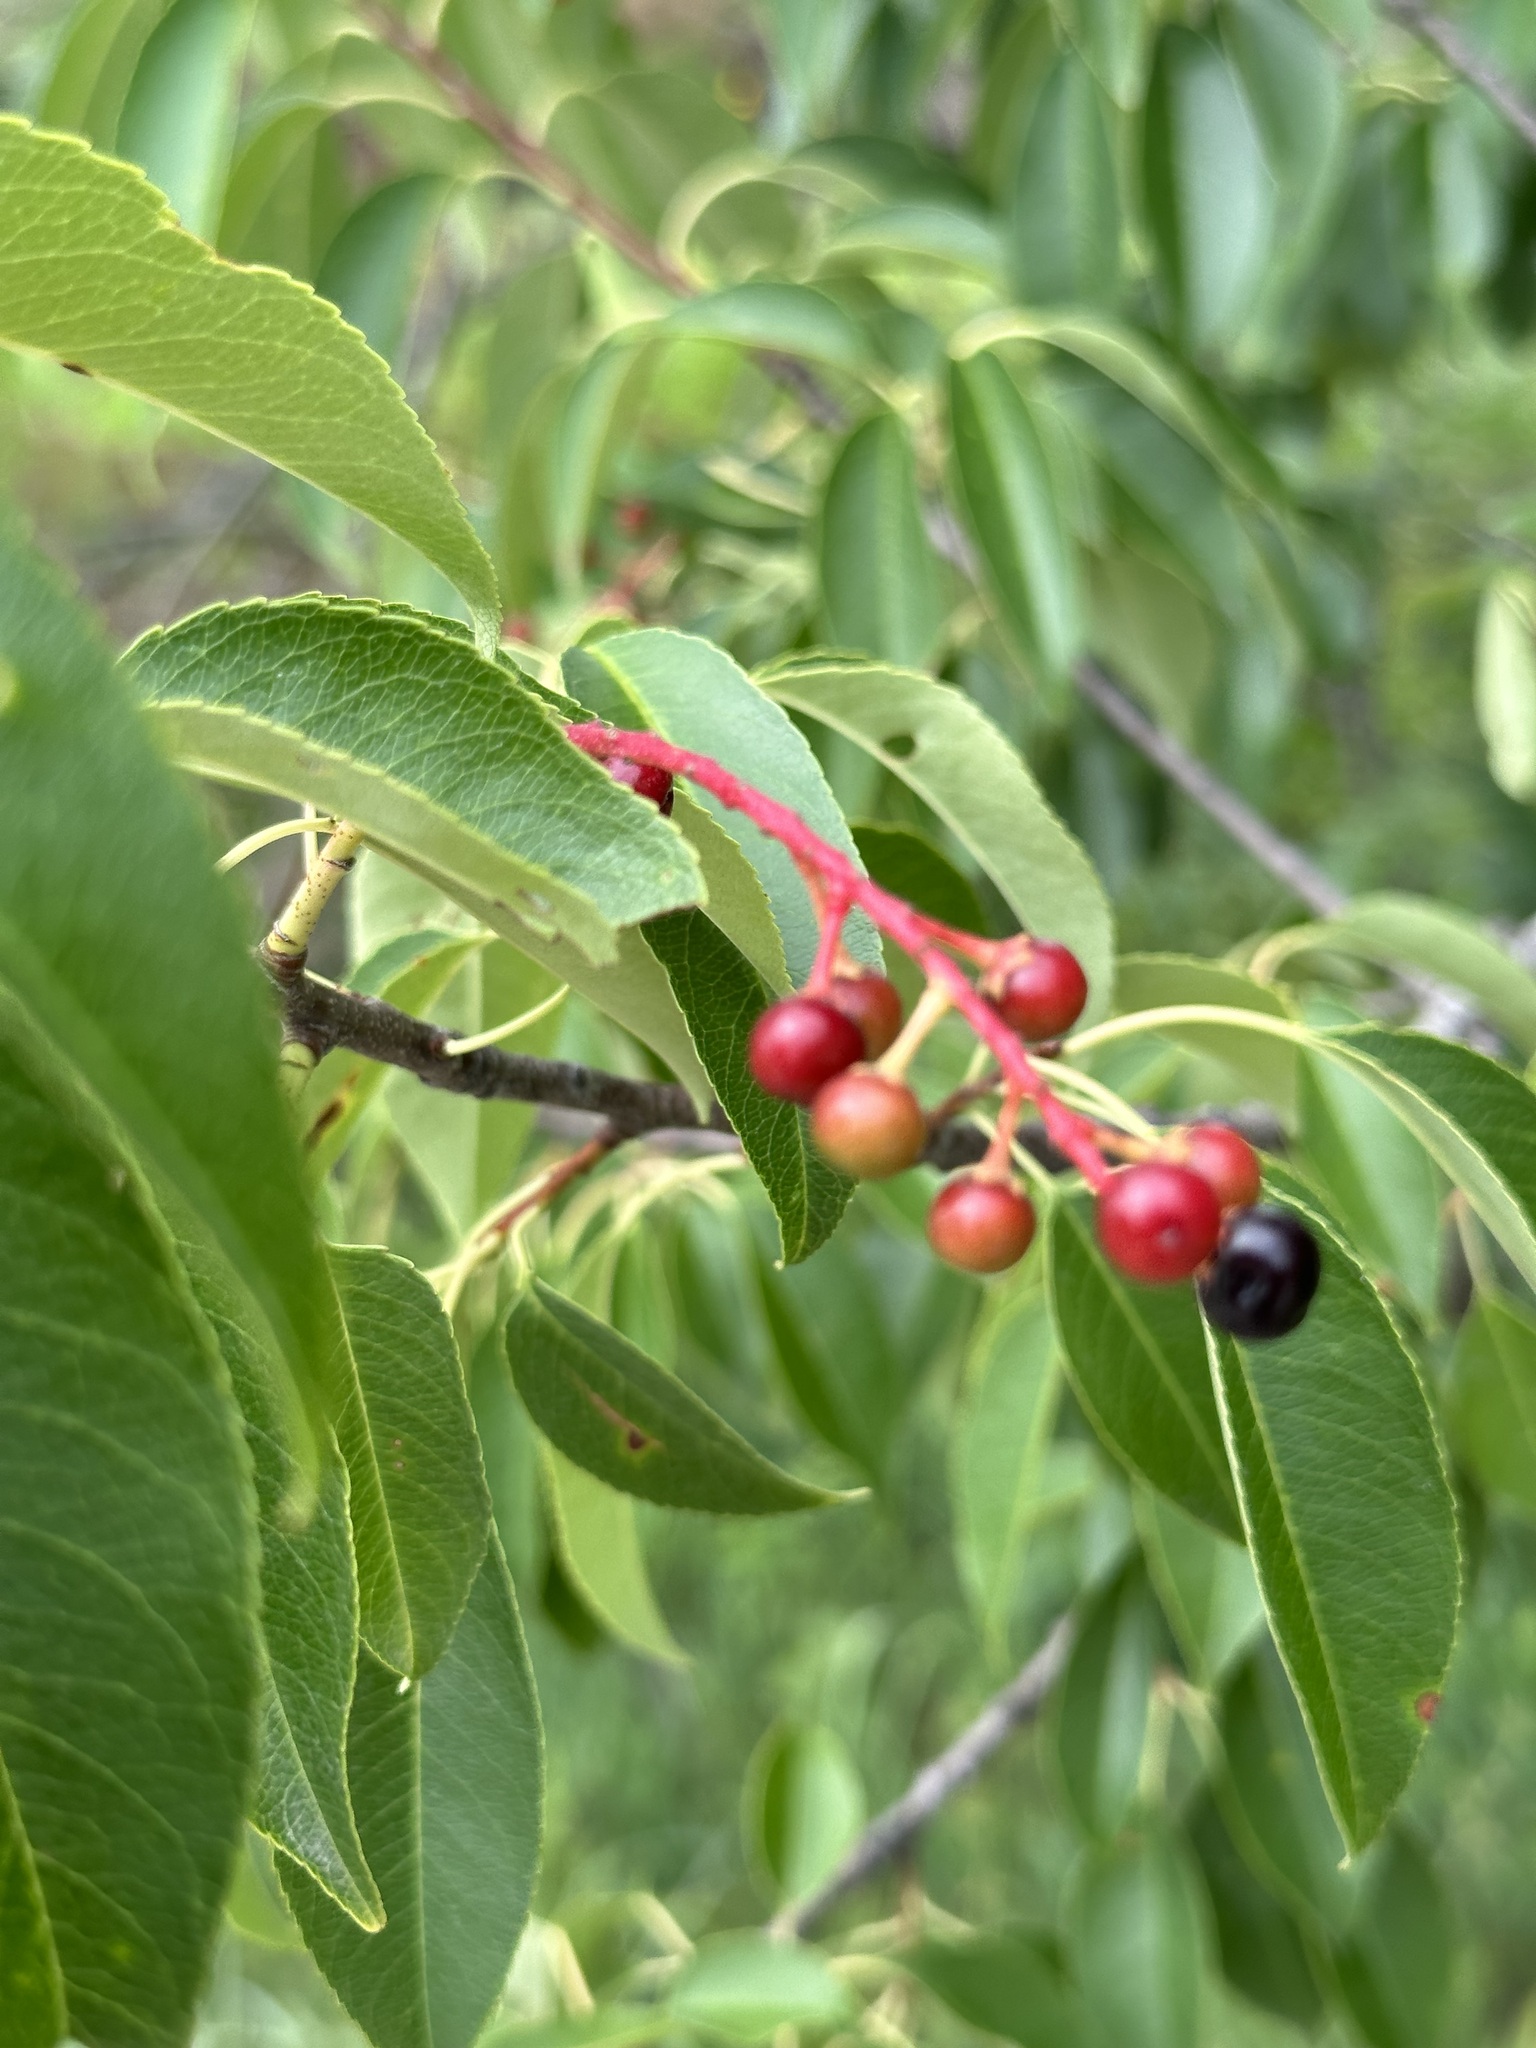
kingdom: Plantae
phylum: Tracheophyta
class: Magnoliopsida
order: Rosales
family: Rosaceae
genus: Prunus
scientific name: Prunus serotina
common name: Black cherry
